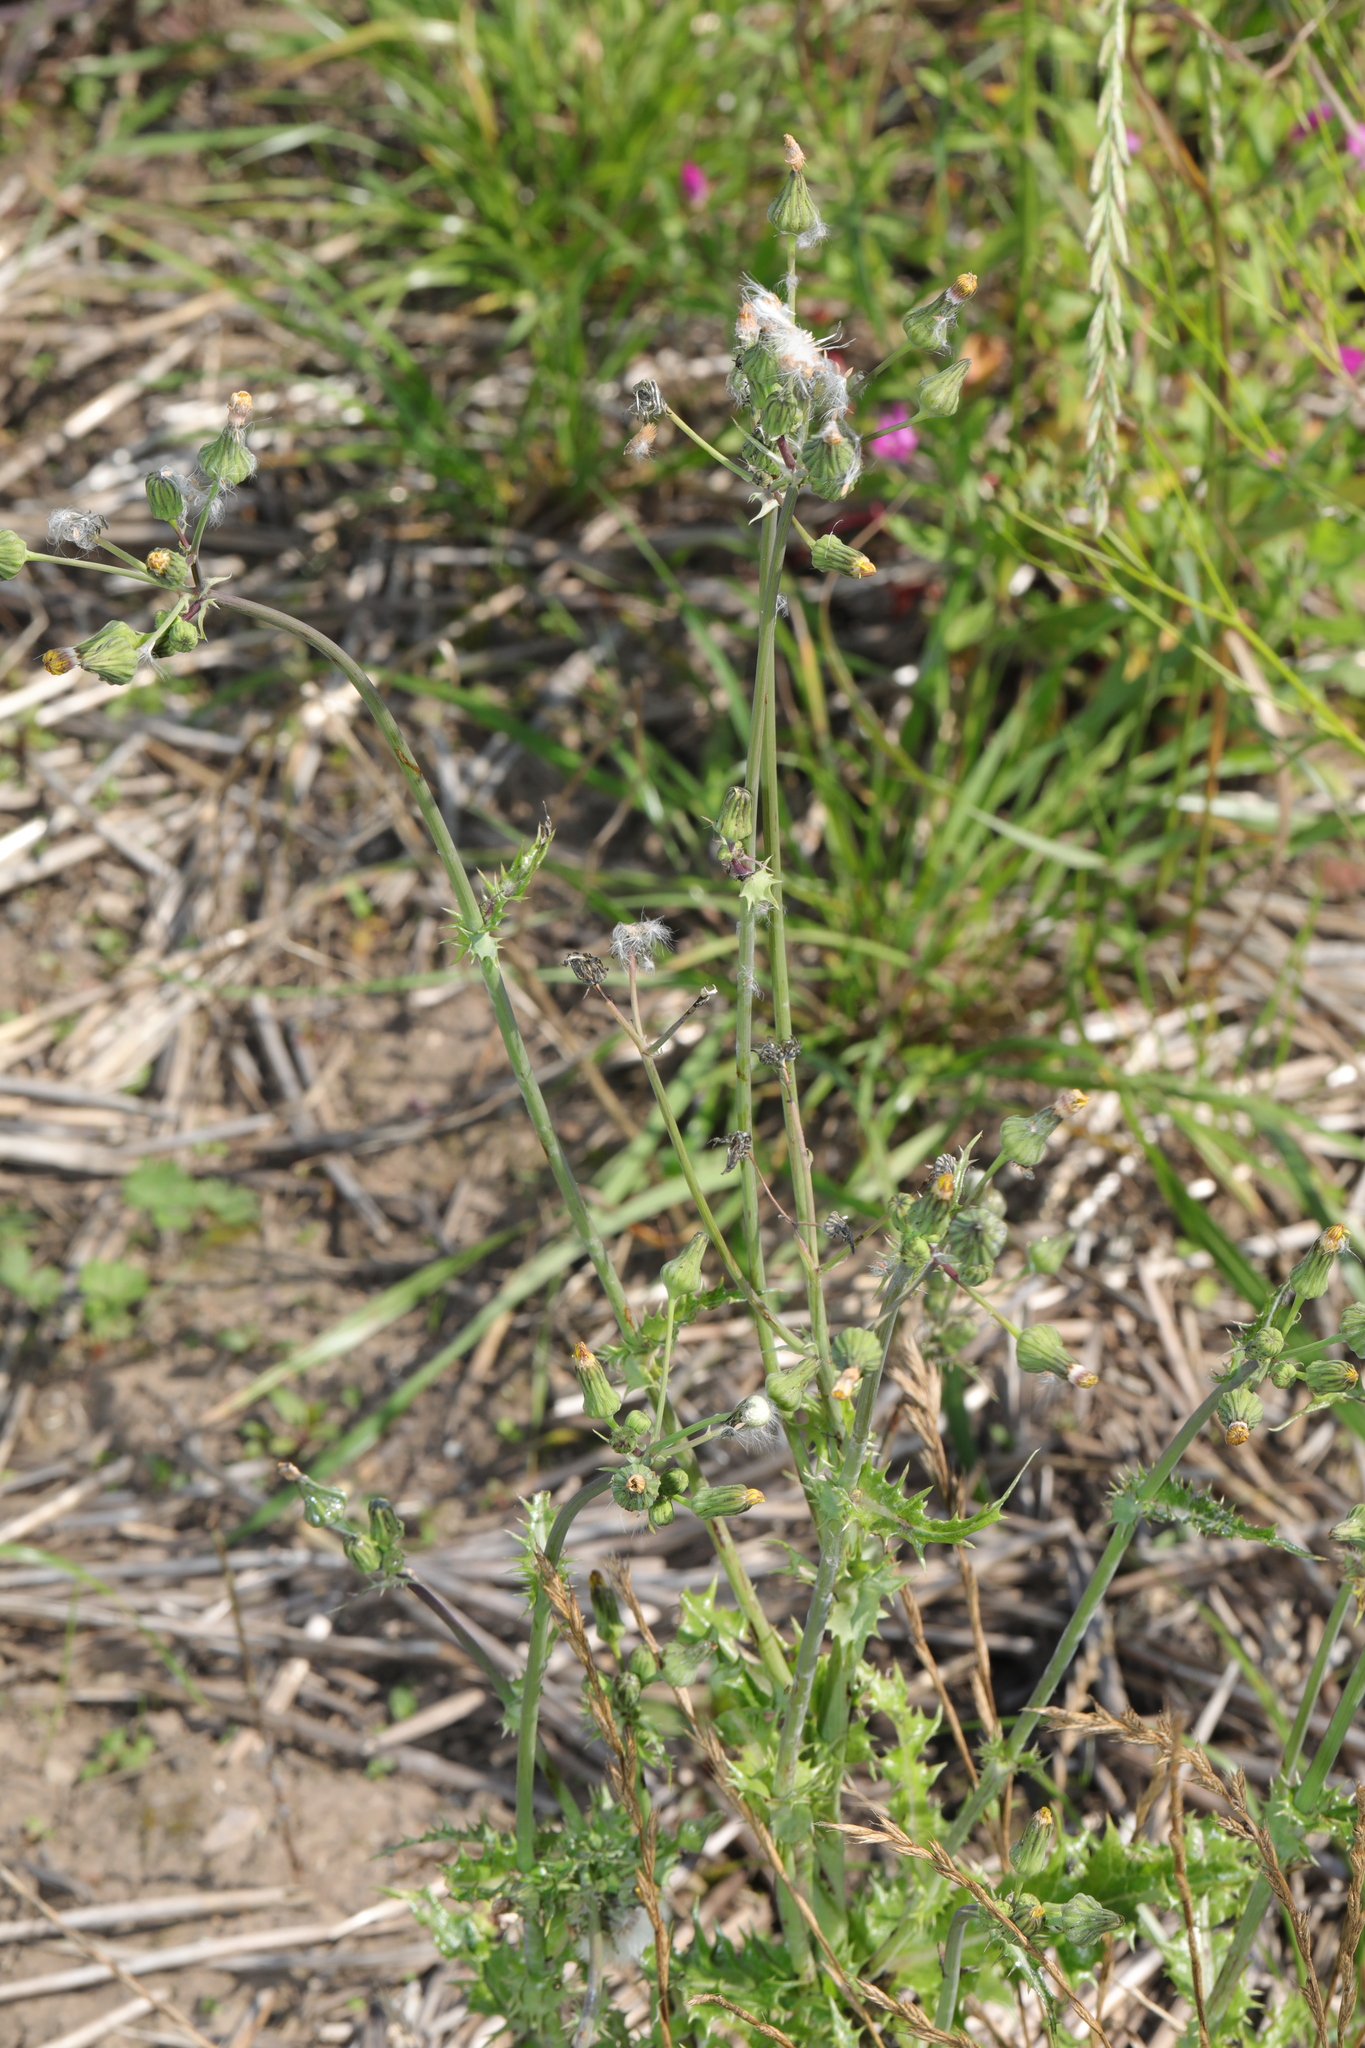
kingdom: Plantae
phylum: Tracheophyta
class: Magnoliopsida
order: Asterales
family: Asteraceae
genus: Sonchus
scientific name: Sonchus asper
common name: Prickly sow-thistle
